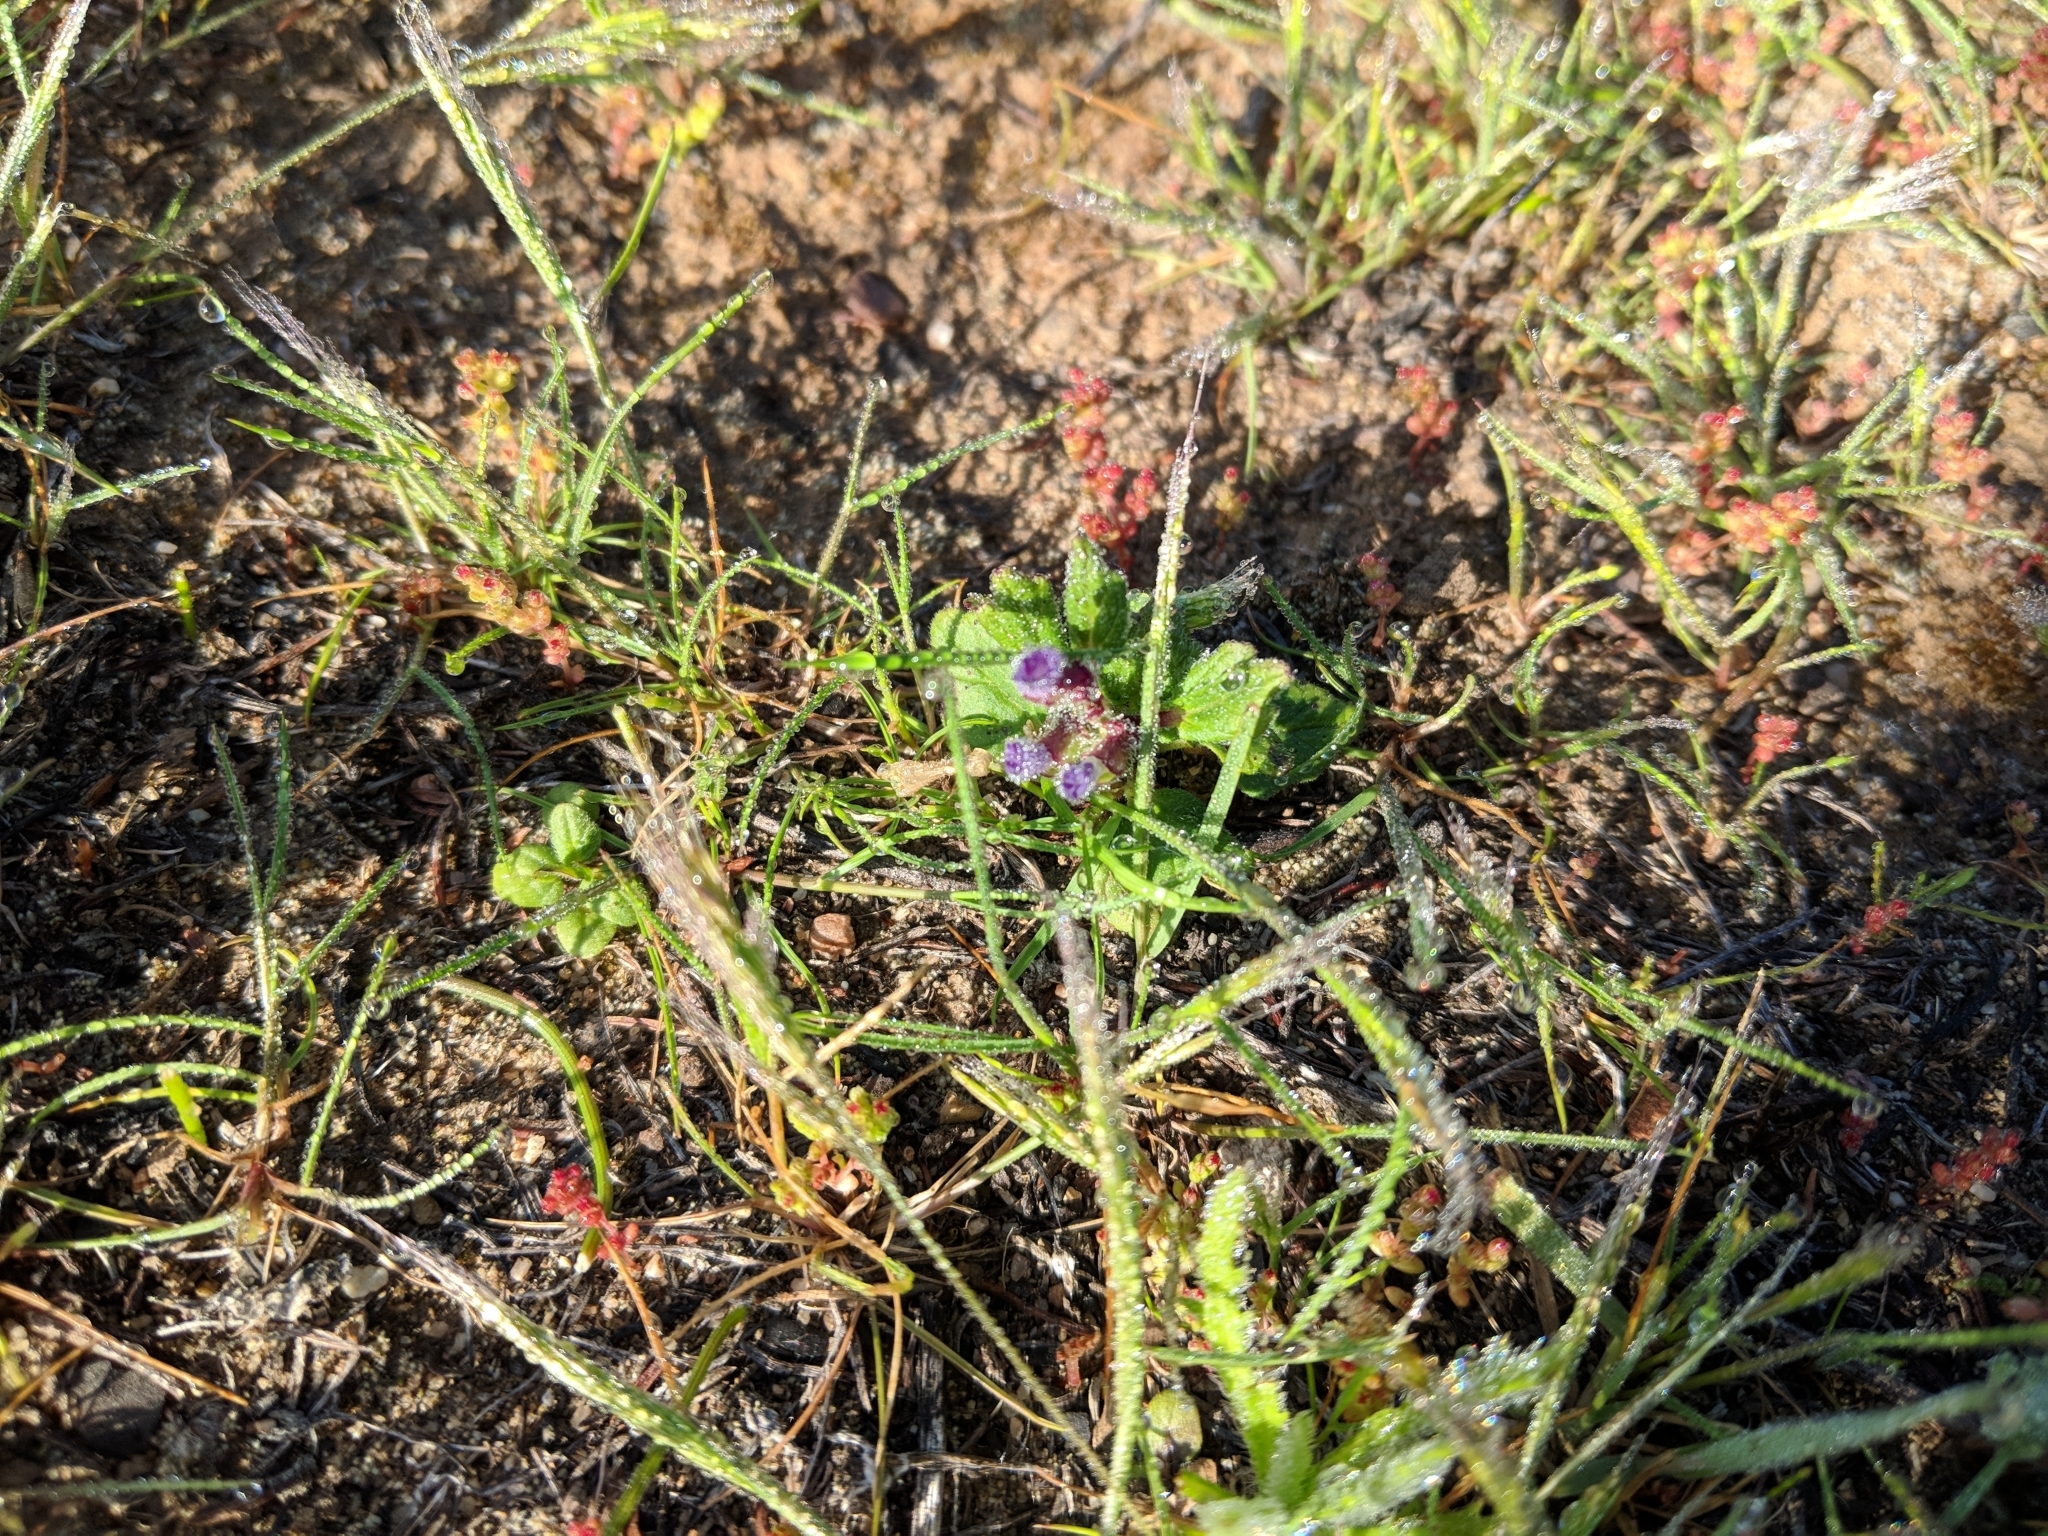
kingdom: Plantae
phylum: Tracheophyta
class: Magnoliopsida
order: Lamiales
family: Lamiaceae
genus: Scutellaria
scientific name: Scutellaria tuberosa
